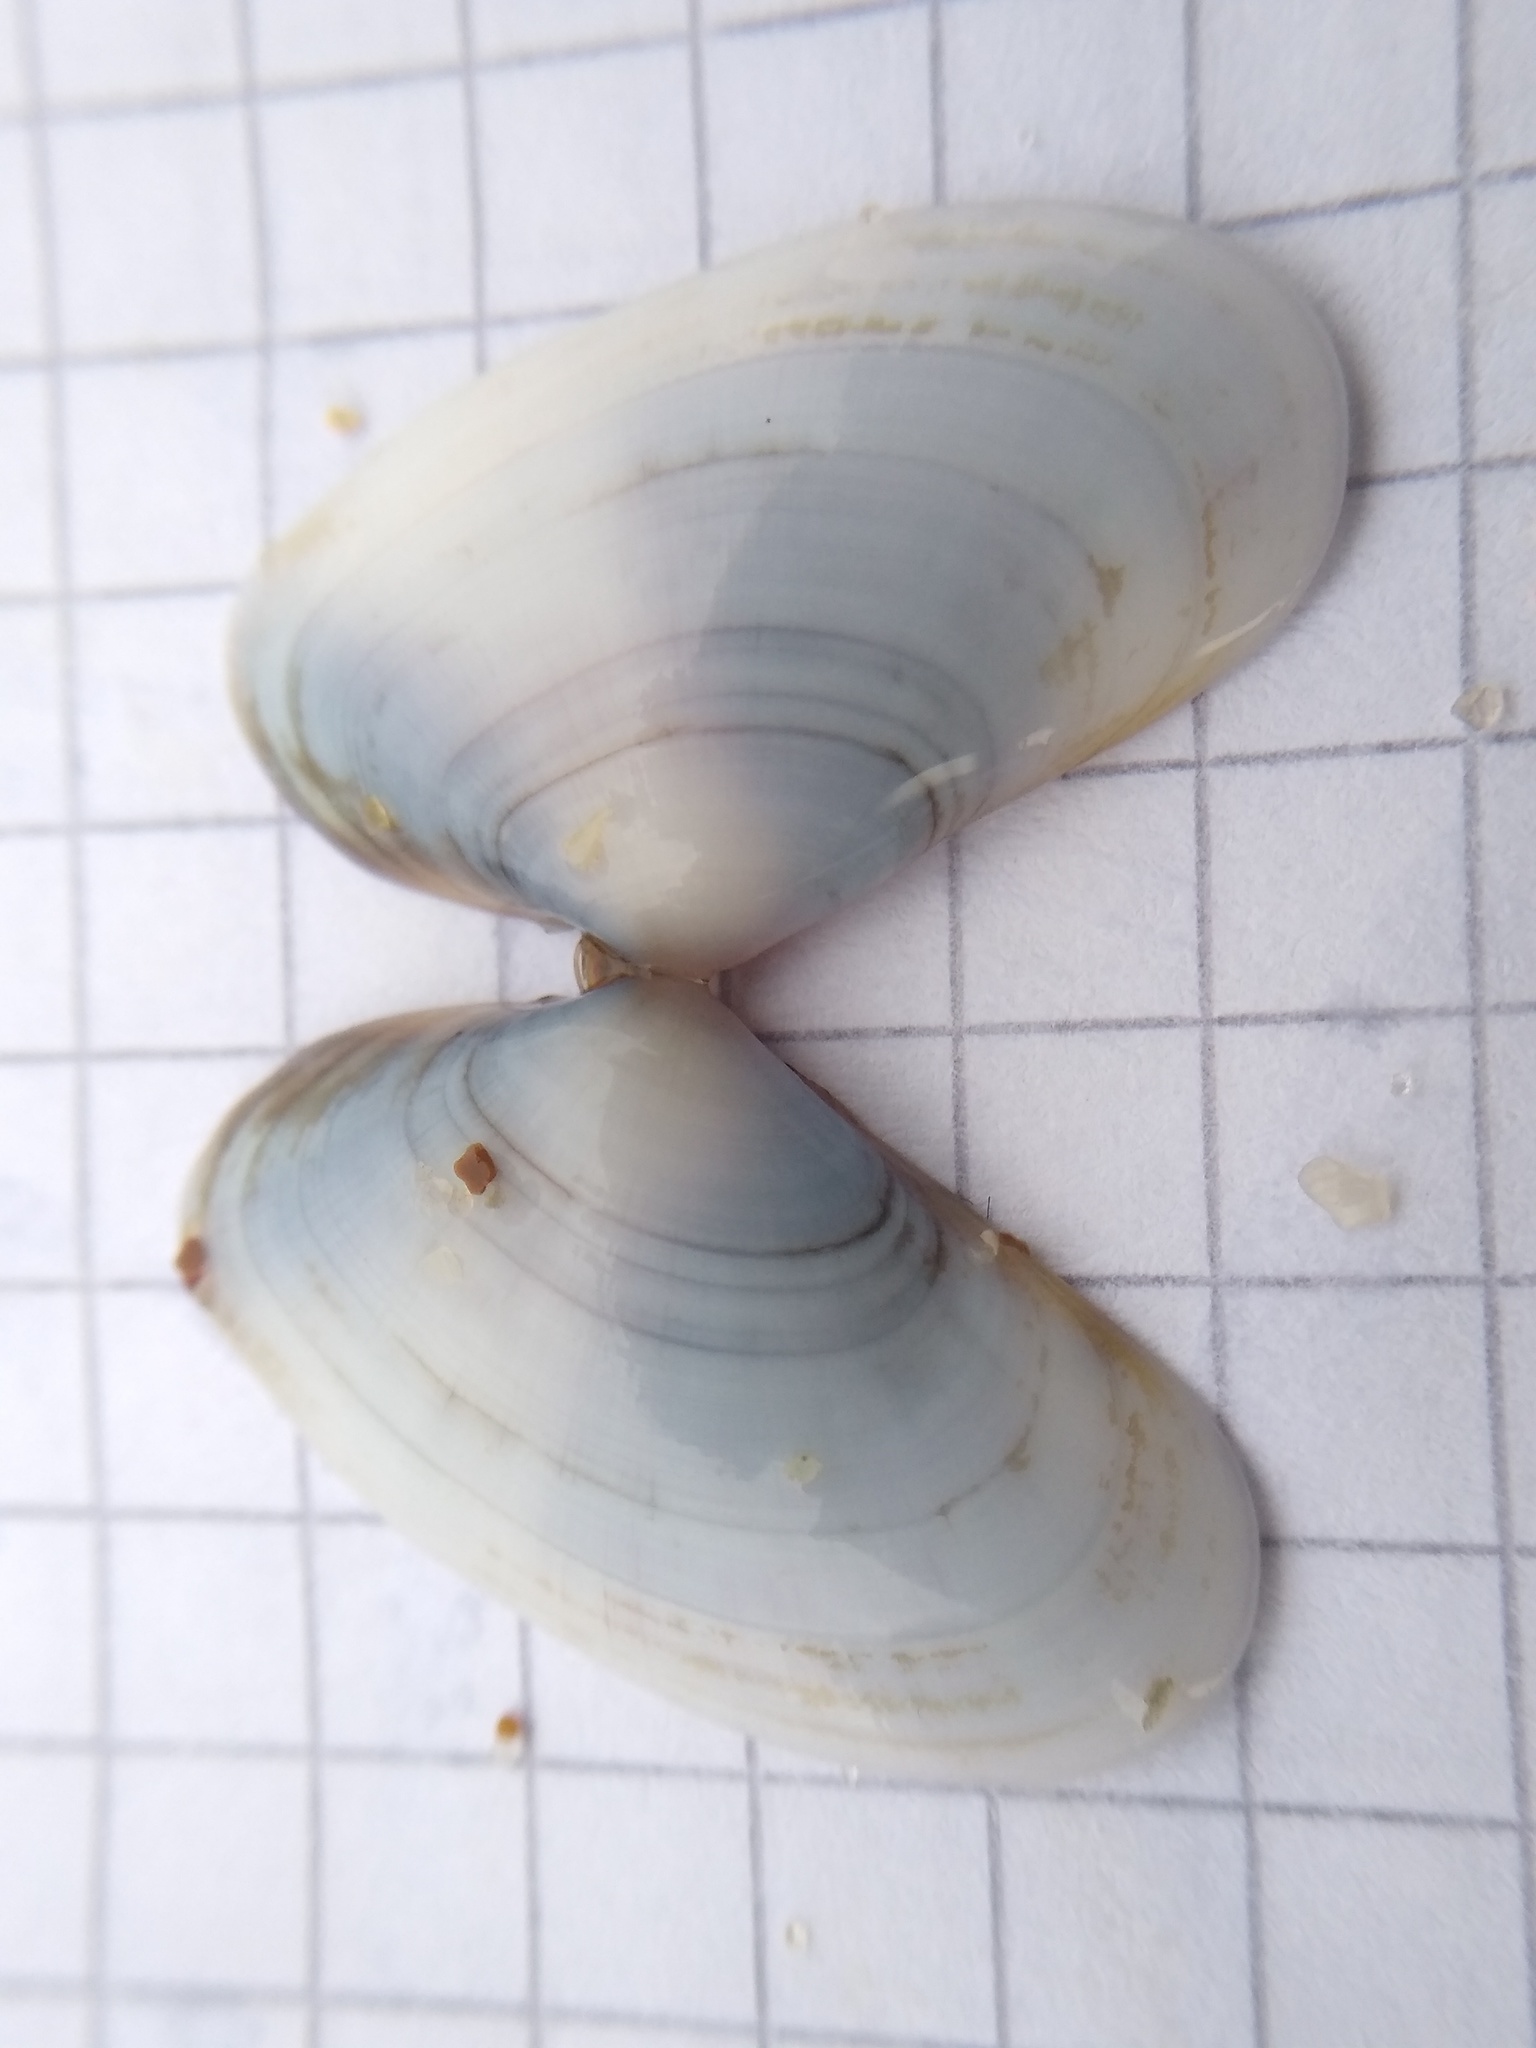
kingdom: Animalia
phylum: Mollusca
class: Bivalvia
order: Cardiida
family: Donacidae
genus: Donax
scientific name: Donax trunculus
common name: Truncate donax
